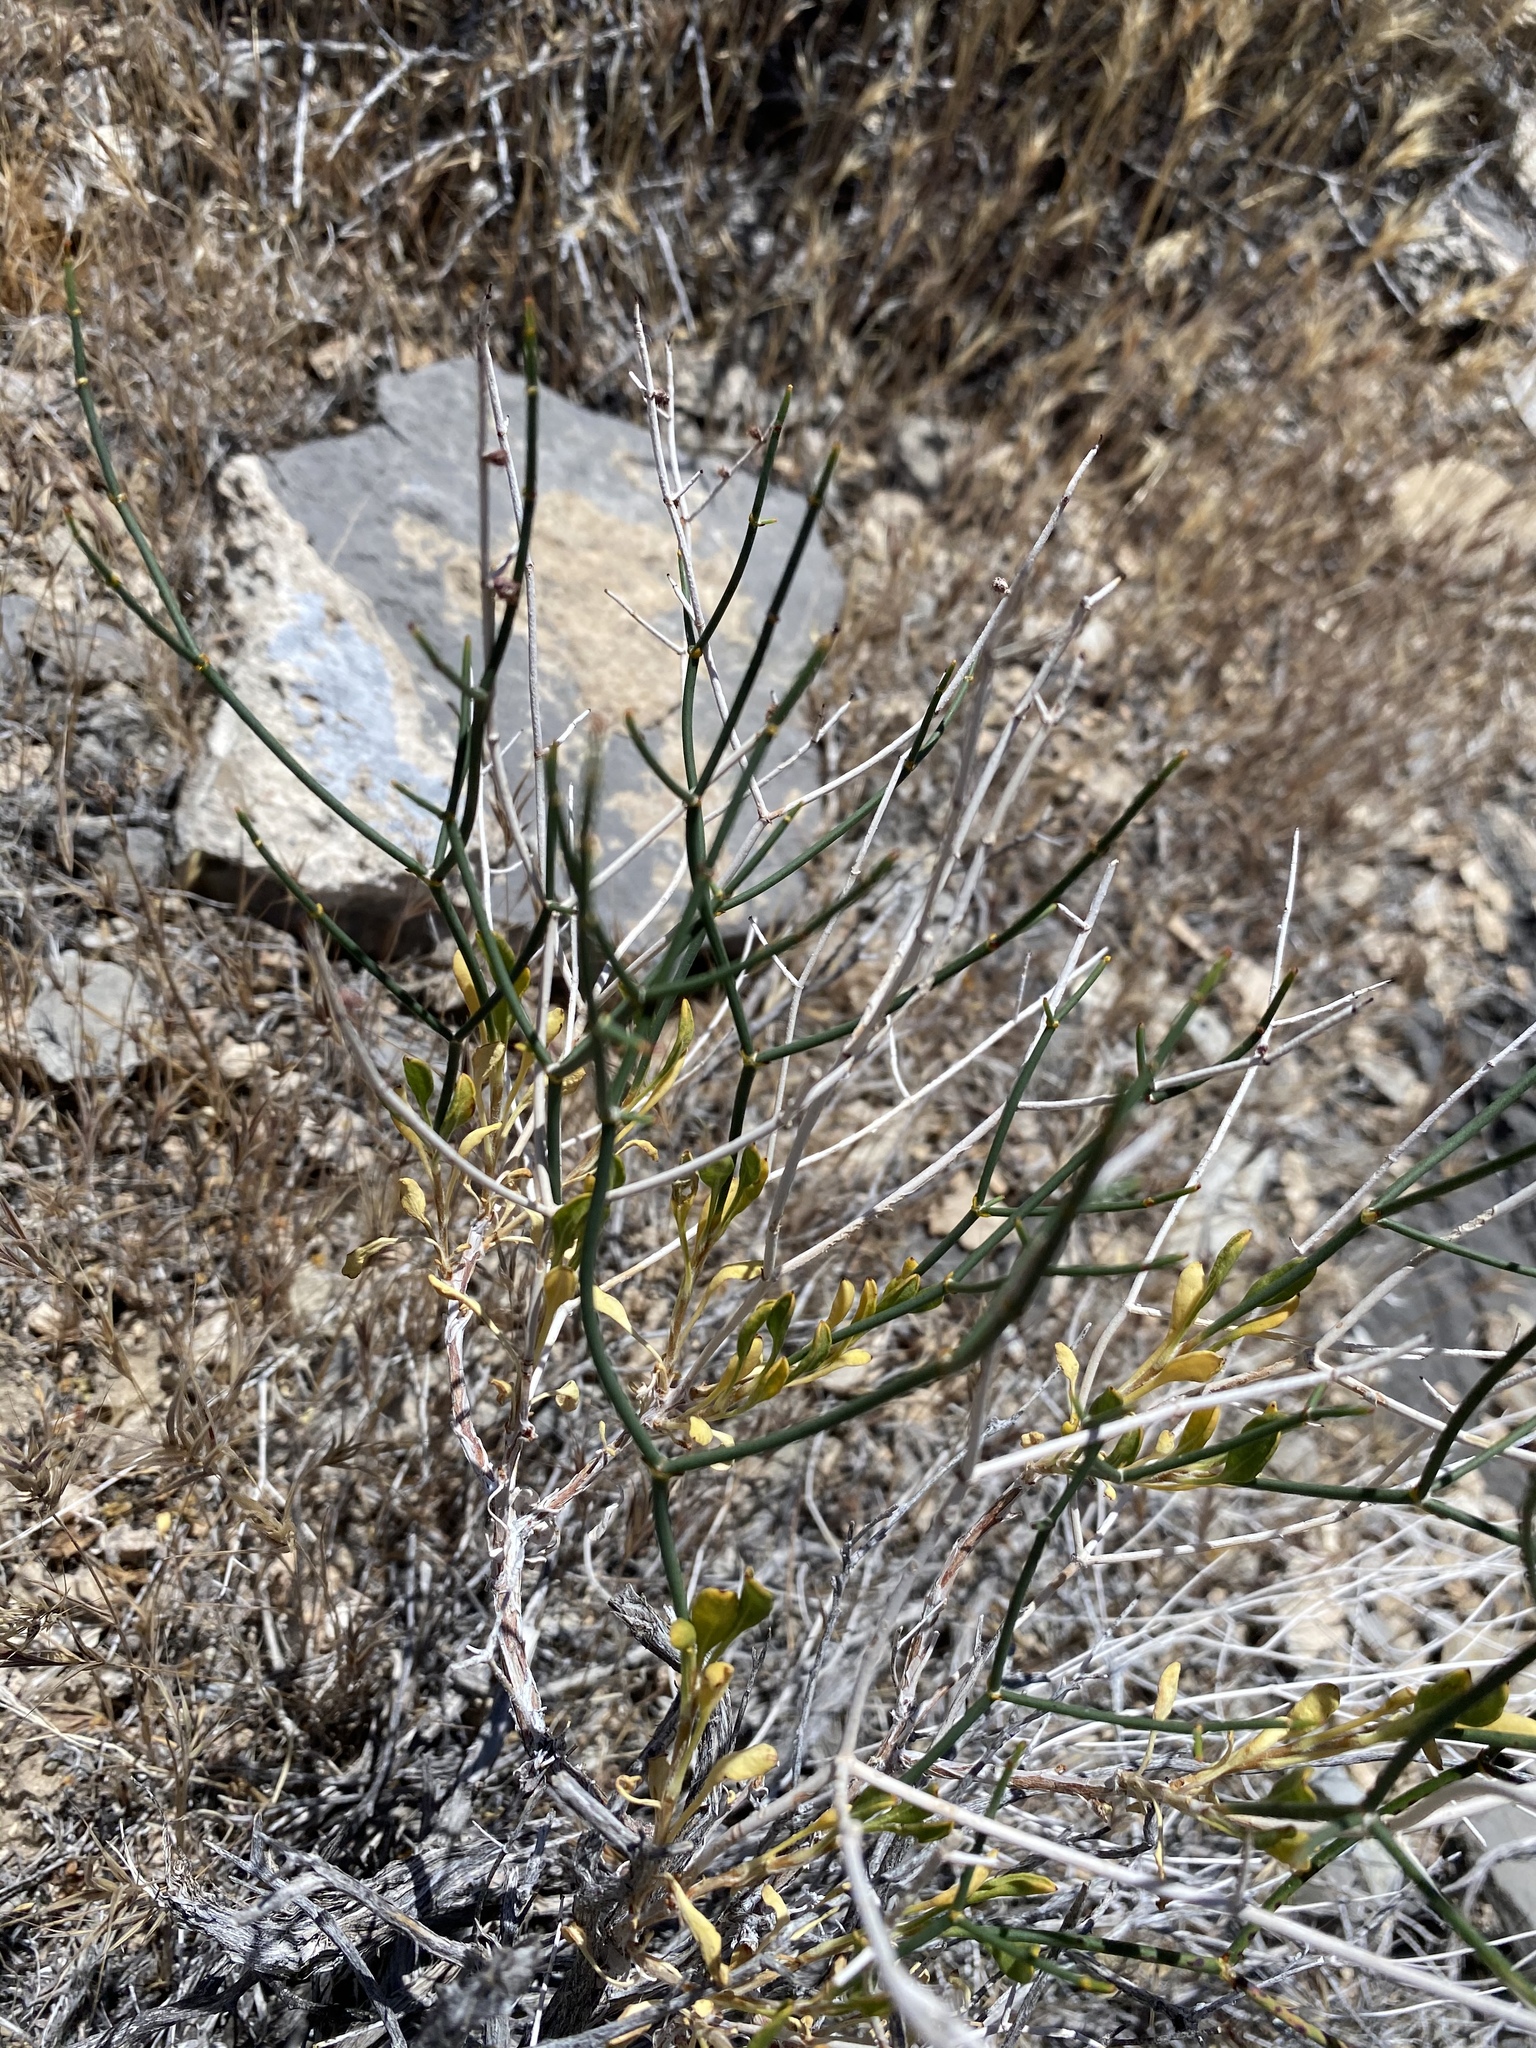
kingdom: Plantae
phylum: Tracheophyta
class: Magnoliopsida
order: Caryophyllales
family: Polygonaceae
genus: Eriogonum
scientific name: Eriogonum heermannii
